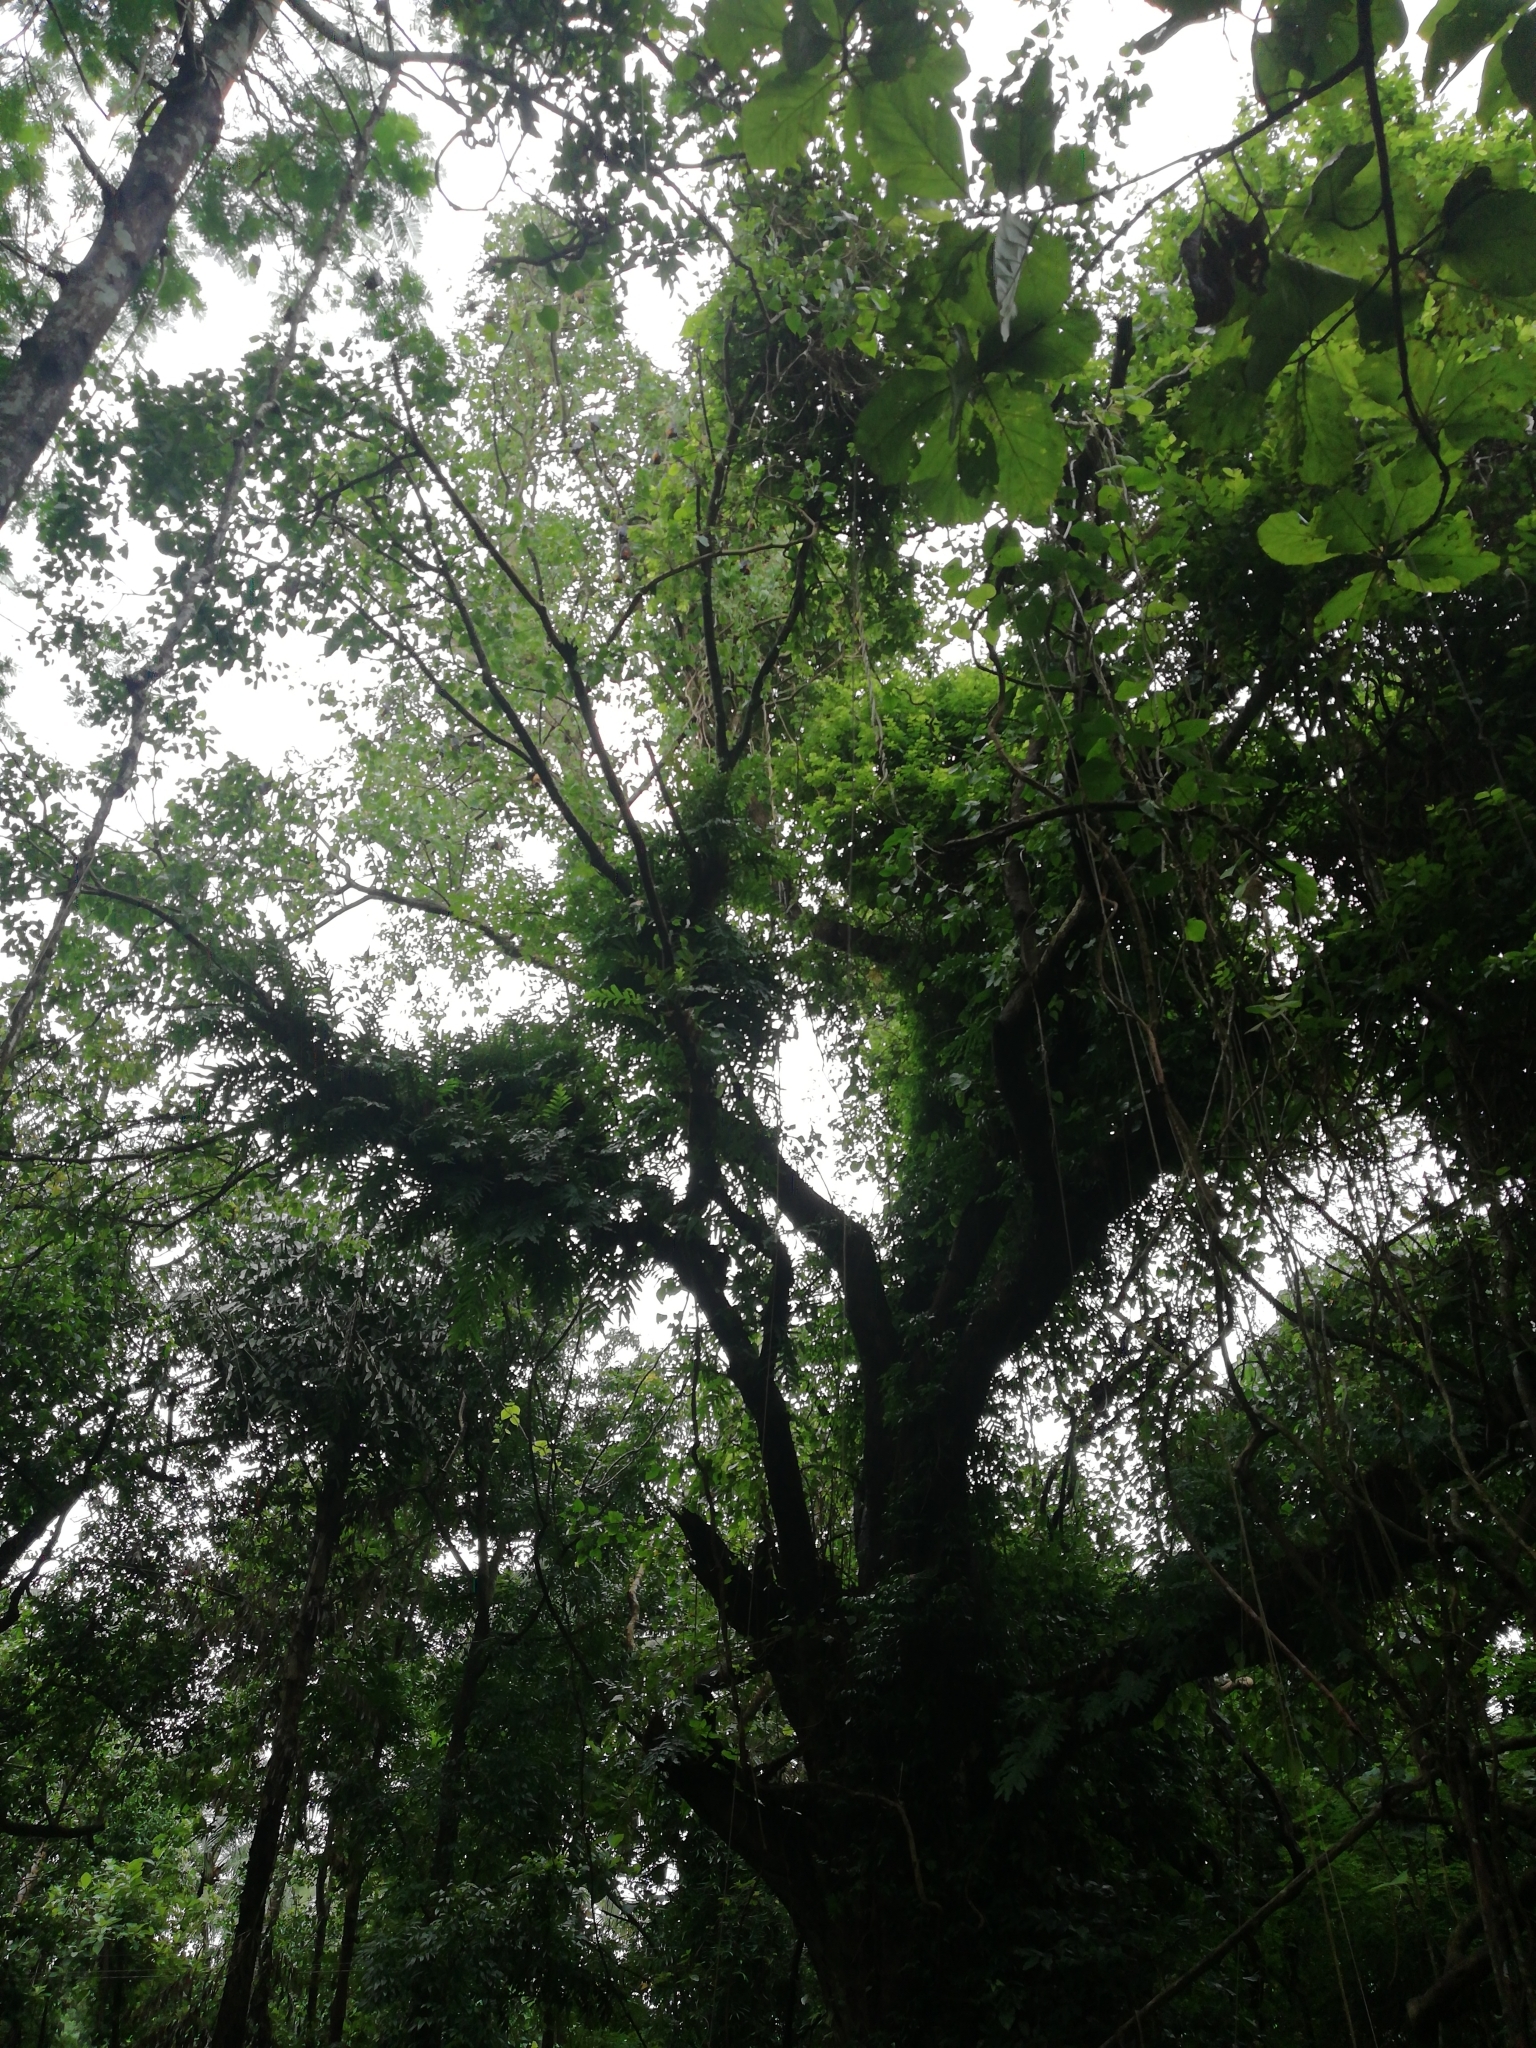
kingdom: Animalia
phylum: Chordata
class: Mammalia
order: Chiroptera
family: Pteropodidae
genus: Pteropus
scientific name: Pteropus vampyrus
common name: Large flying fox
